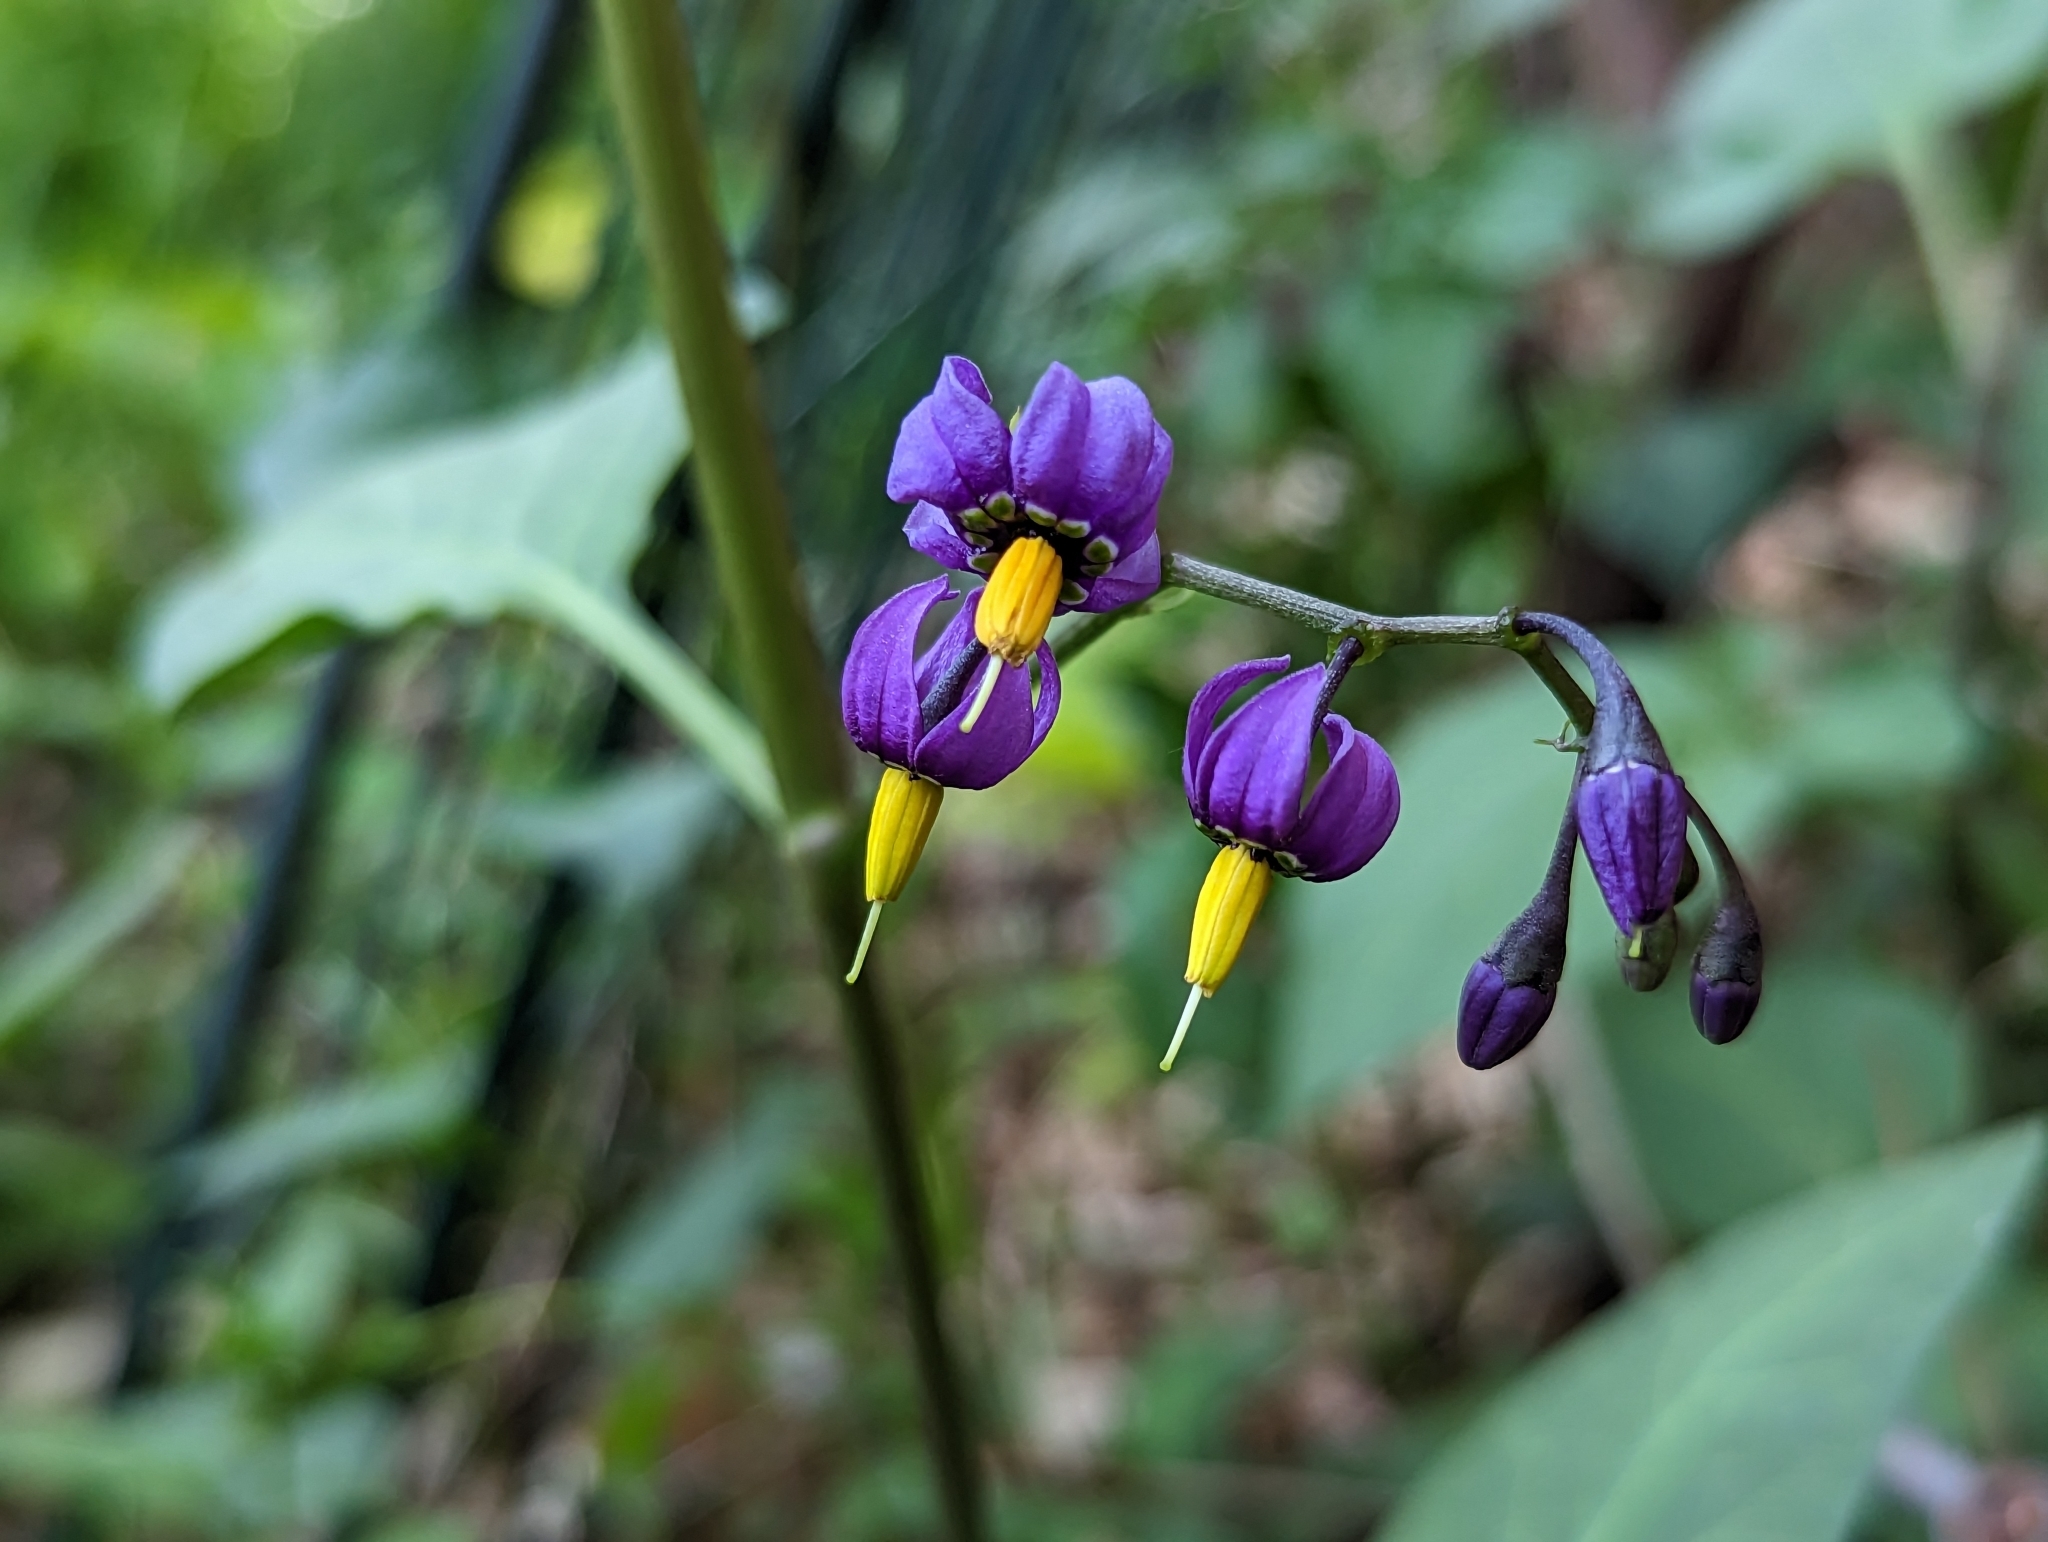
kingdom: Plantae
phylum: Tracheophyta
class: Magnoliopsida
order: Solanales
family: Solanaceae
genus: Solanum
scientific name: Solanum dulcamara
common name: Climbing nightshade
